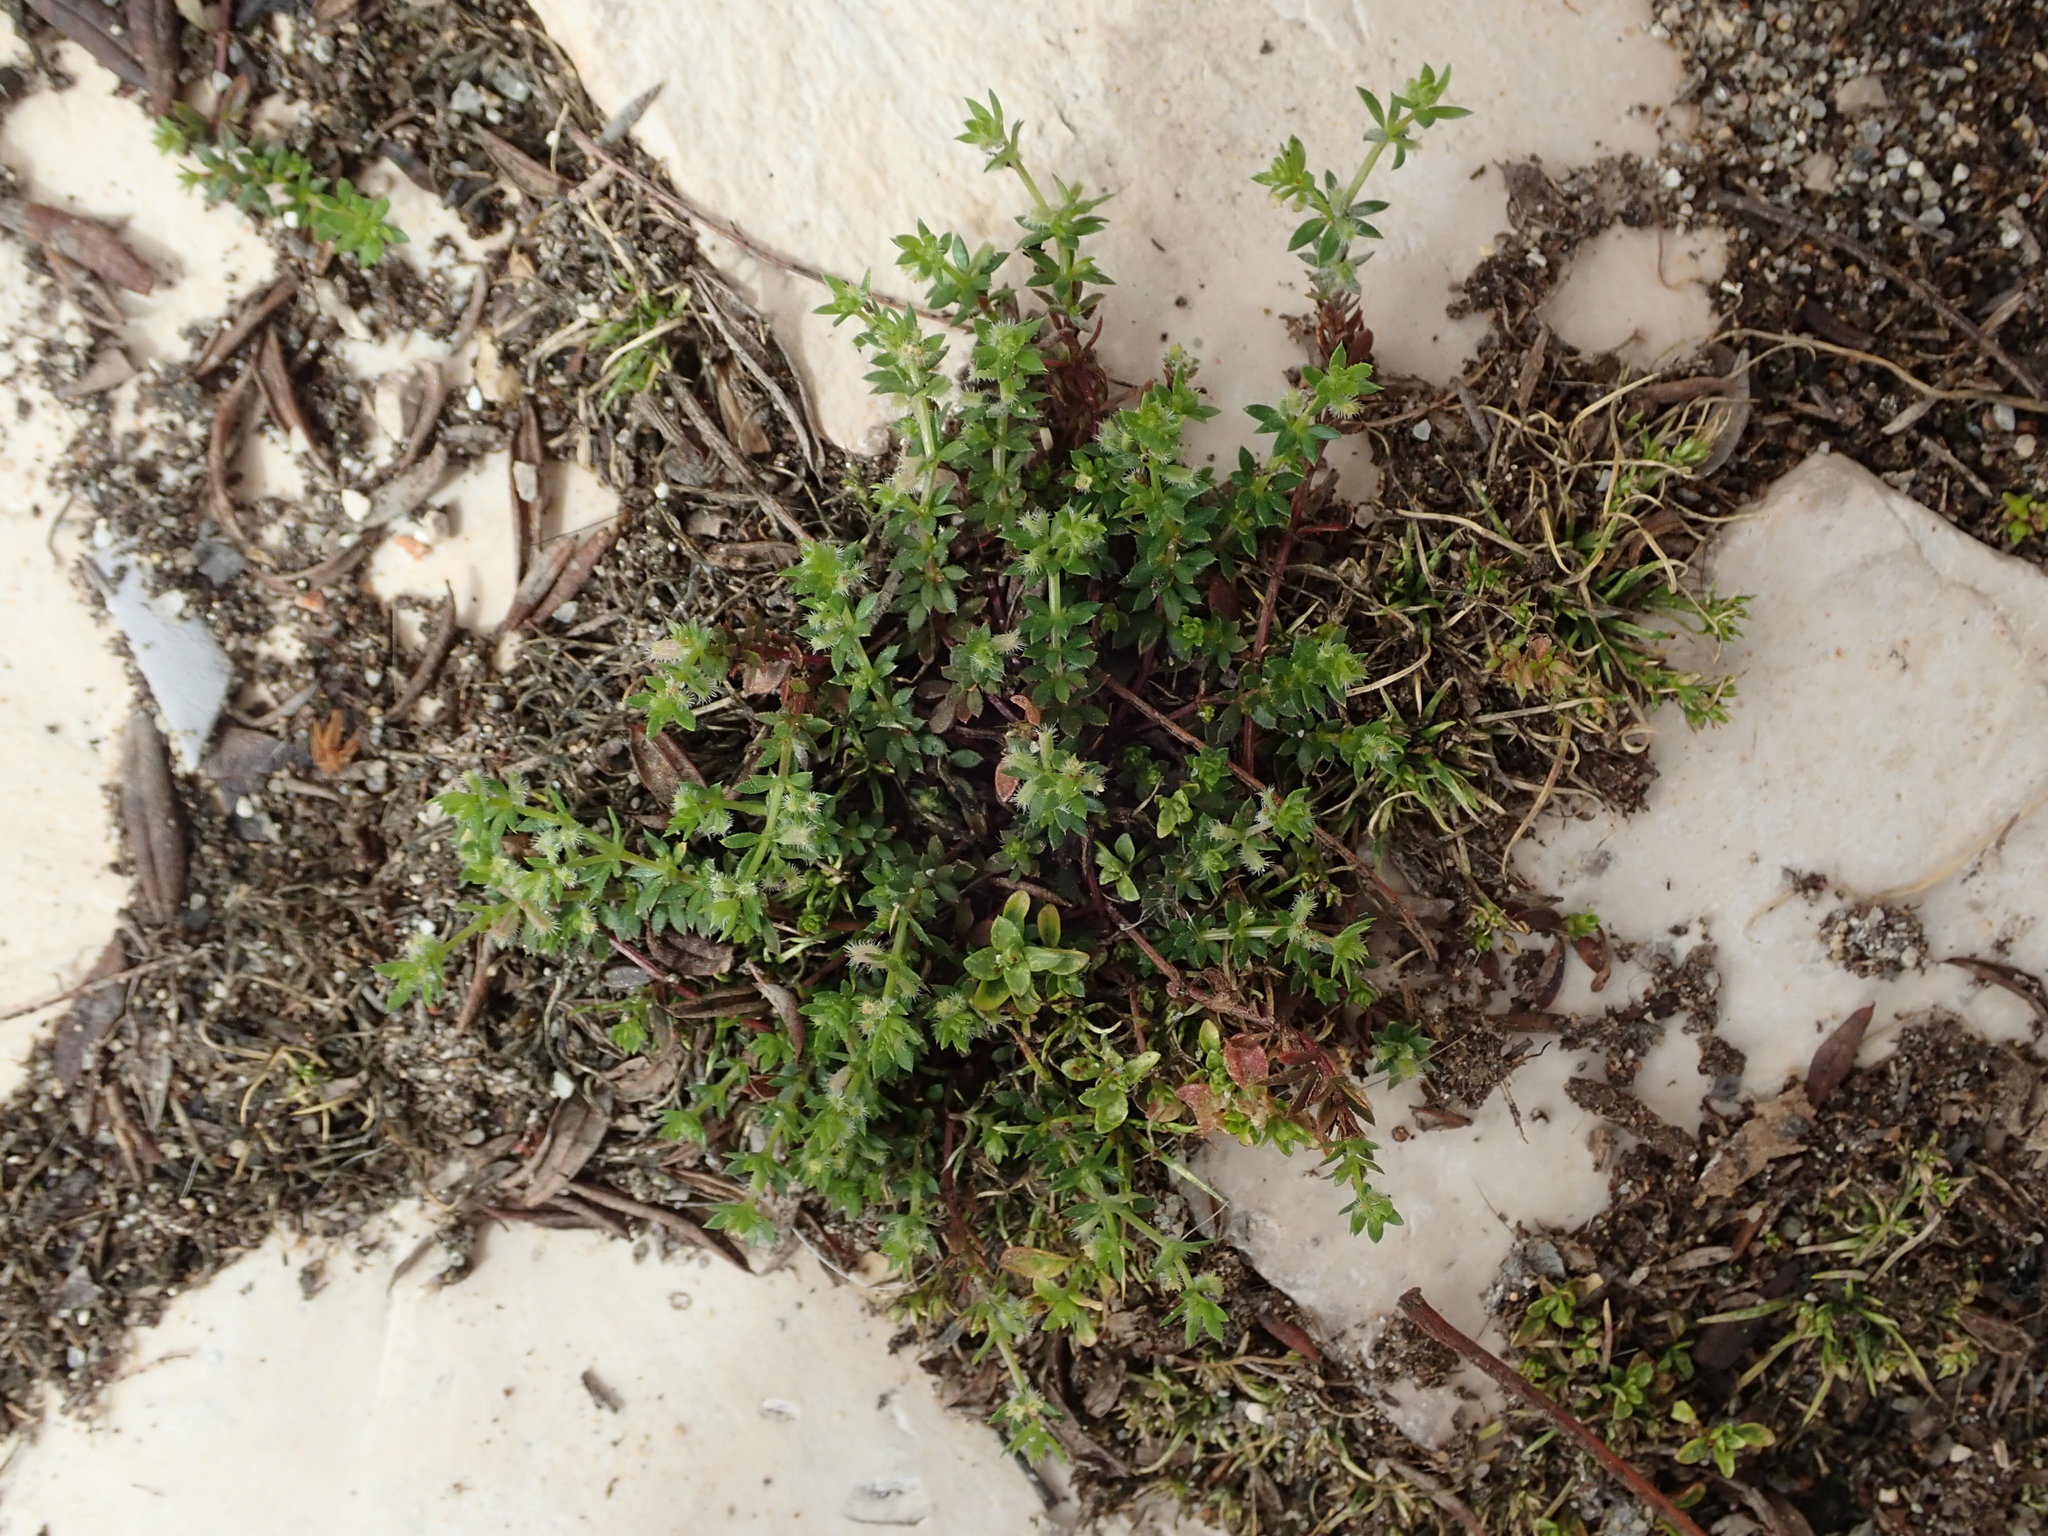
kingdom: Plantae
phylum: Tracheophyta
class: Magnoliopsida
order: Gentianales
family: Rubiaceae
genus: Galium
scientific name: Galium murale
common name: Yellow wall bedstraw
